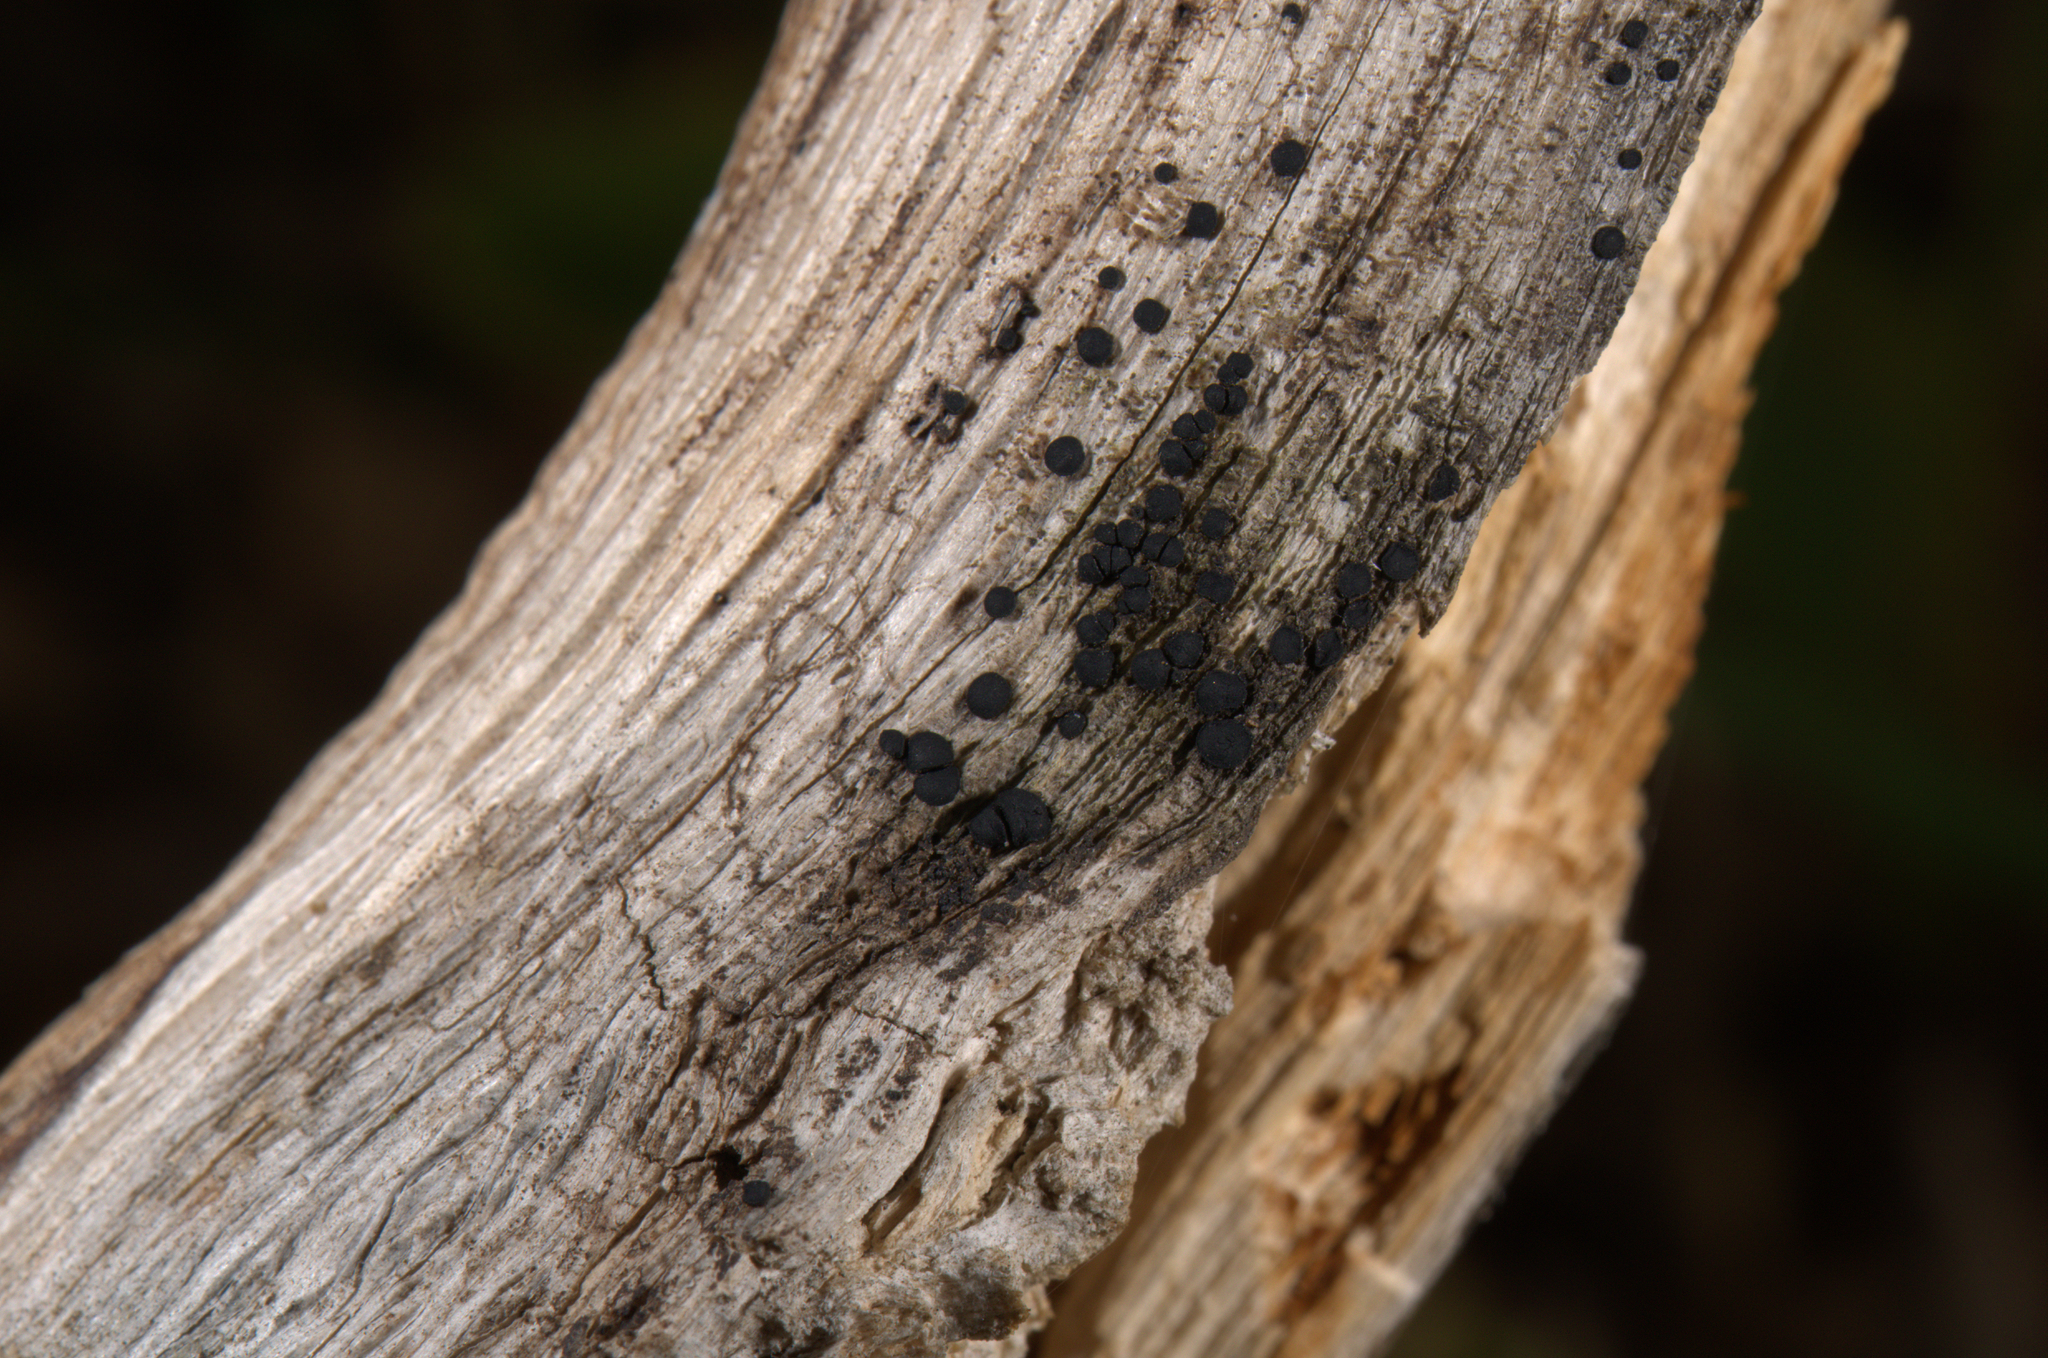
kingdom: Fungi
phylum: Ascomycota
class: Dothideomycetes
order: Patellariales
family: Patellariaceae
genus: Patellaria
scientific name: Patellaria atrata
